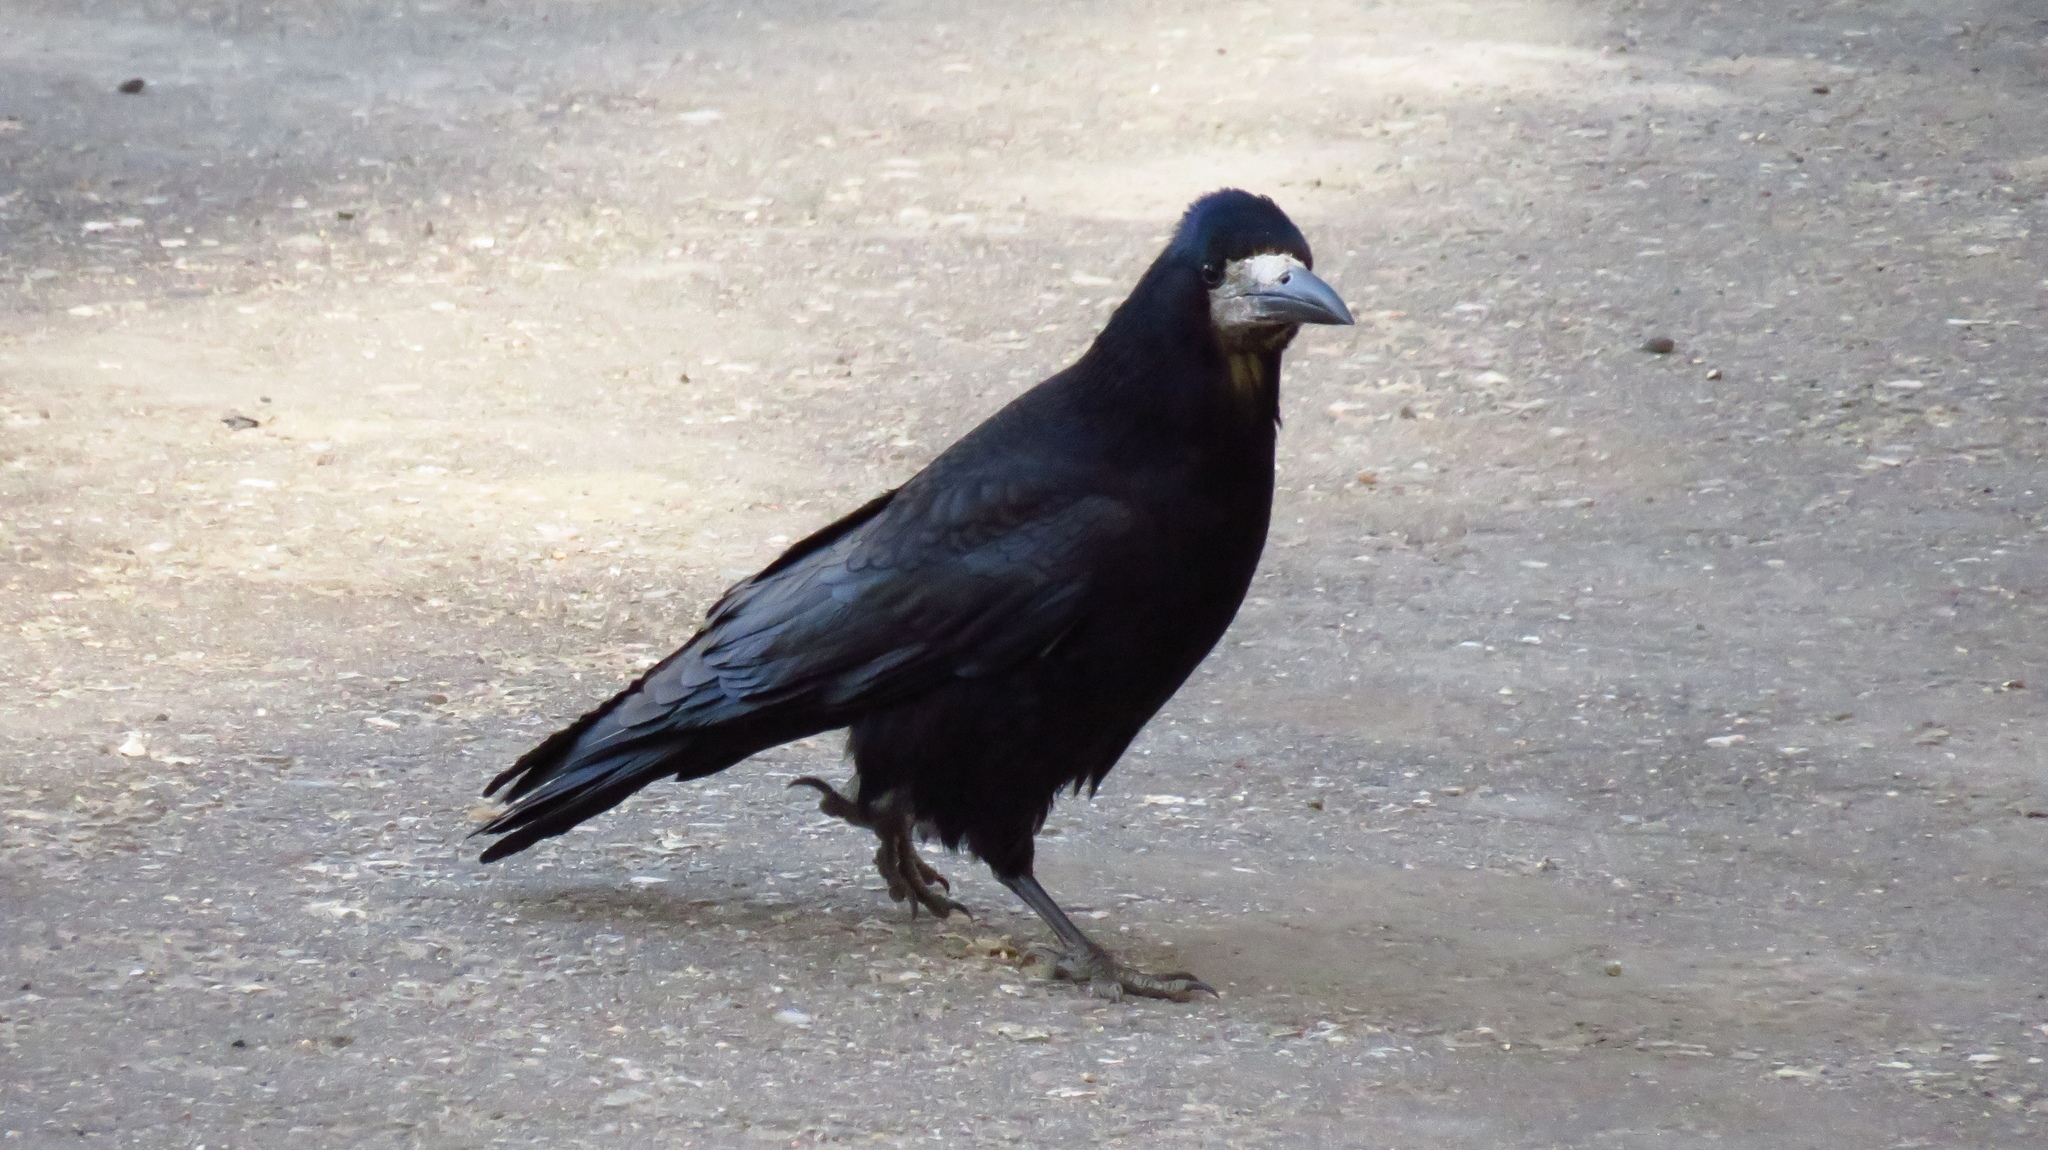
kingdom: Animalia
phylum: Chordata
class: Aves
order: Passeriformes
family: Corvidae
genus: Corvus
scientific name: Corvus frugilegus
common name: Rook
